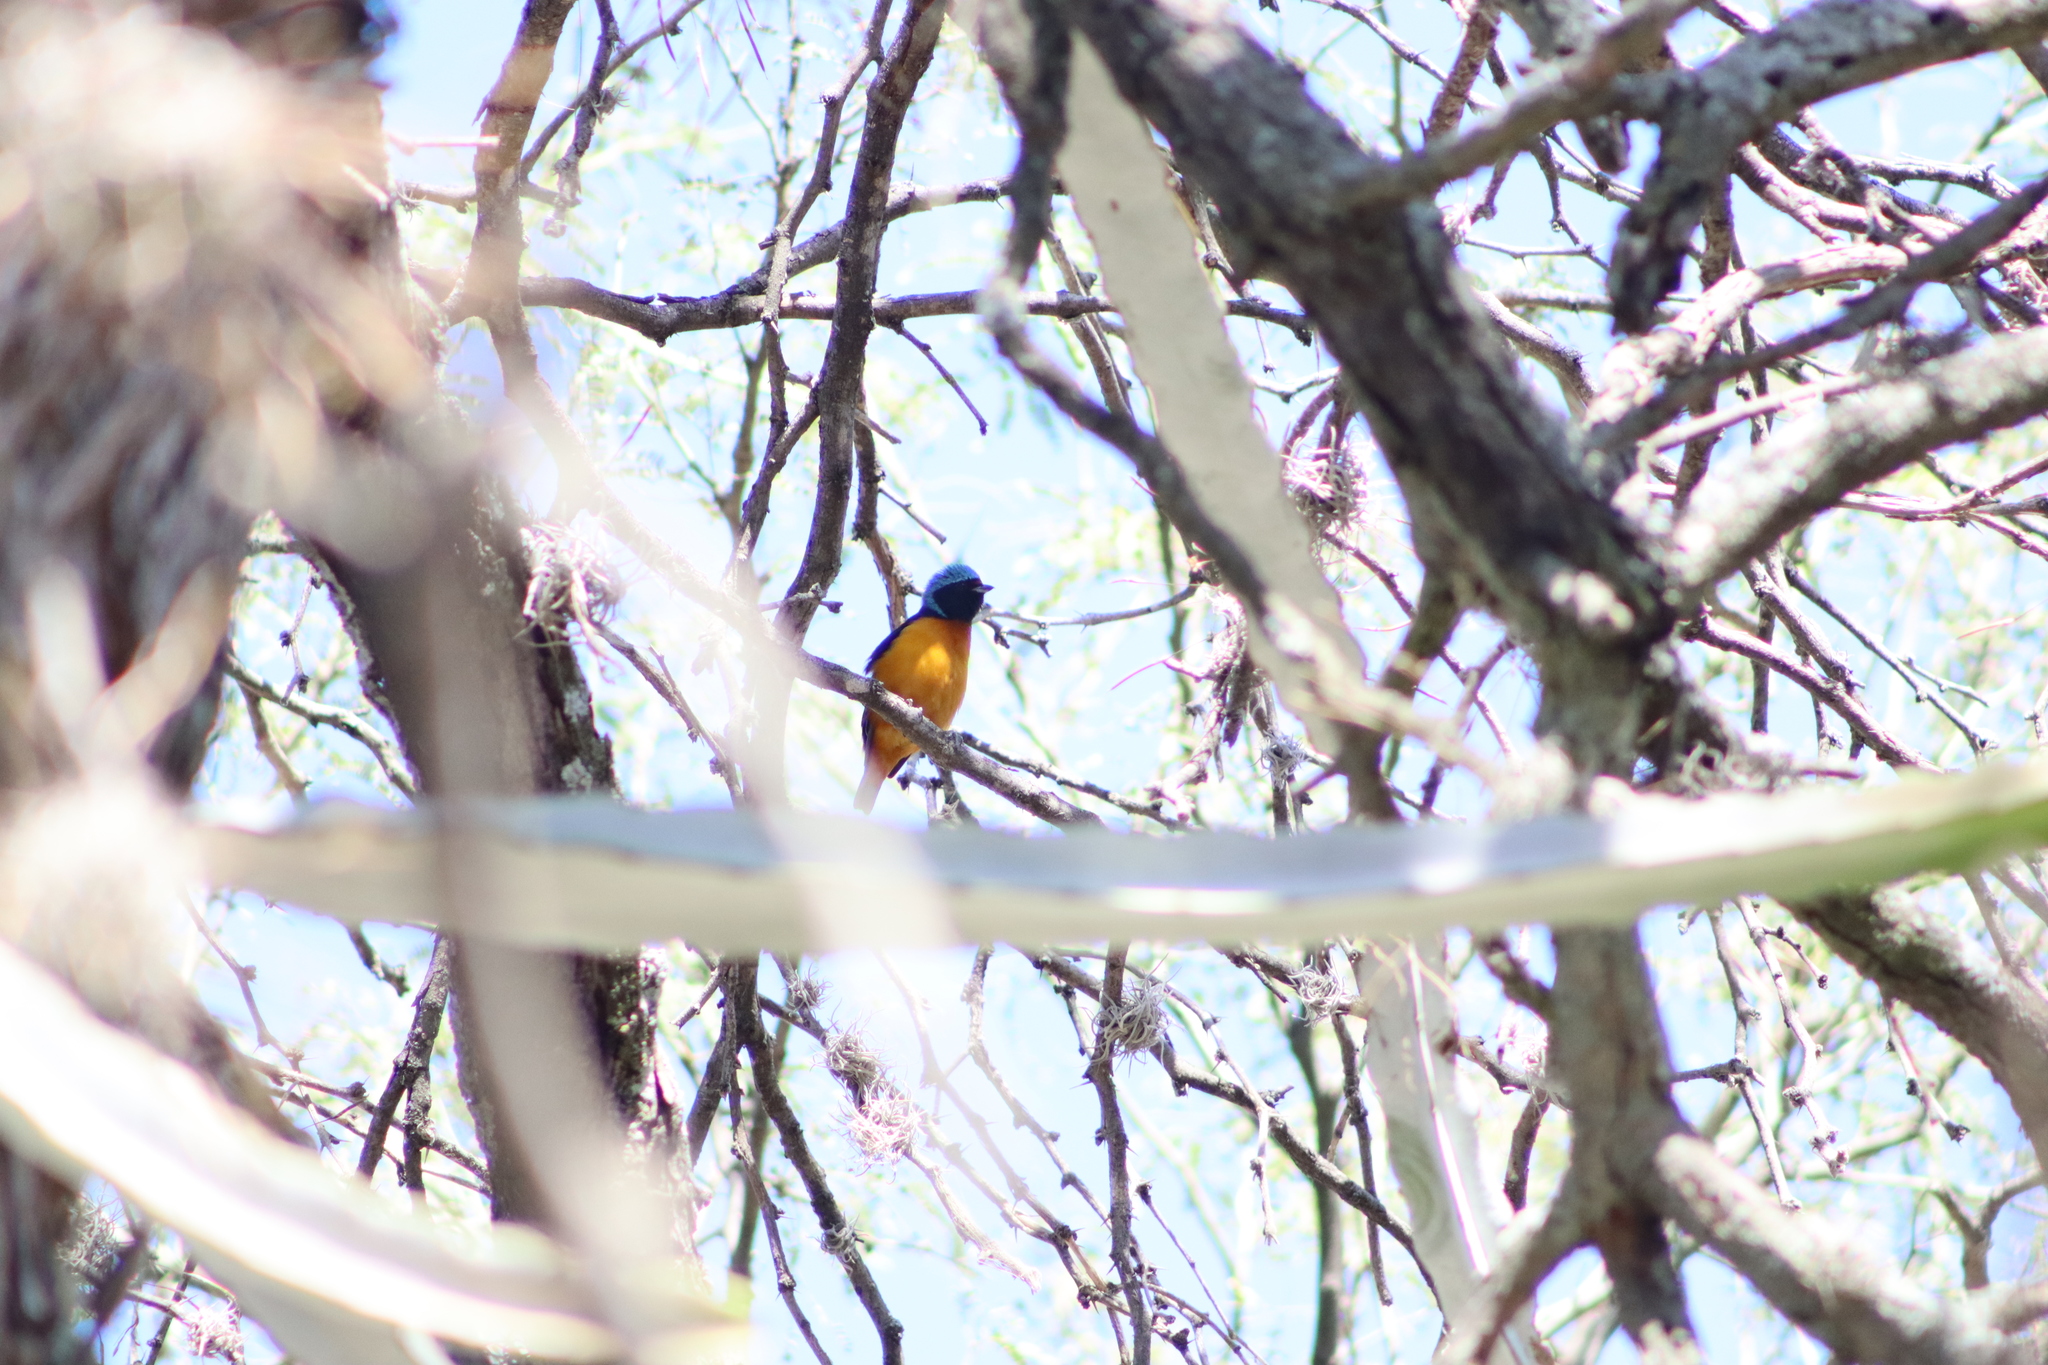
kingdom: Animalia
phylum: Chordata
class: Aves
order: Passeriformes
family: Fringillidae
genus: Euphonia
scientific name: Euphonia elegantissima
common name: Elegant euphonia
